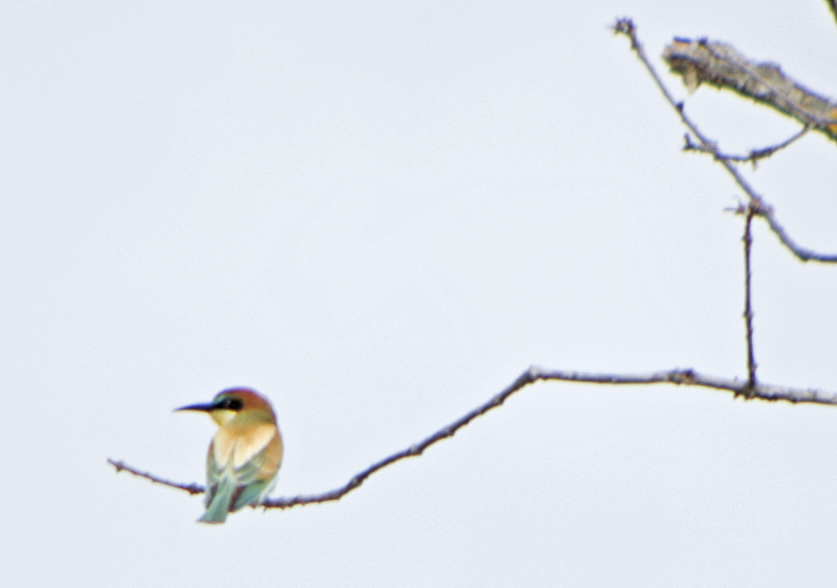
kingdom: Animalia
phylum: Chordata
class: Aves
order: Coraciiformes
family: Meropidae
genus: Merops
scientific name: Merops apiaster
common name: European bee-eater
